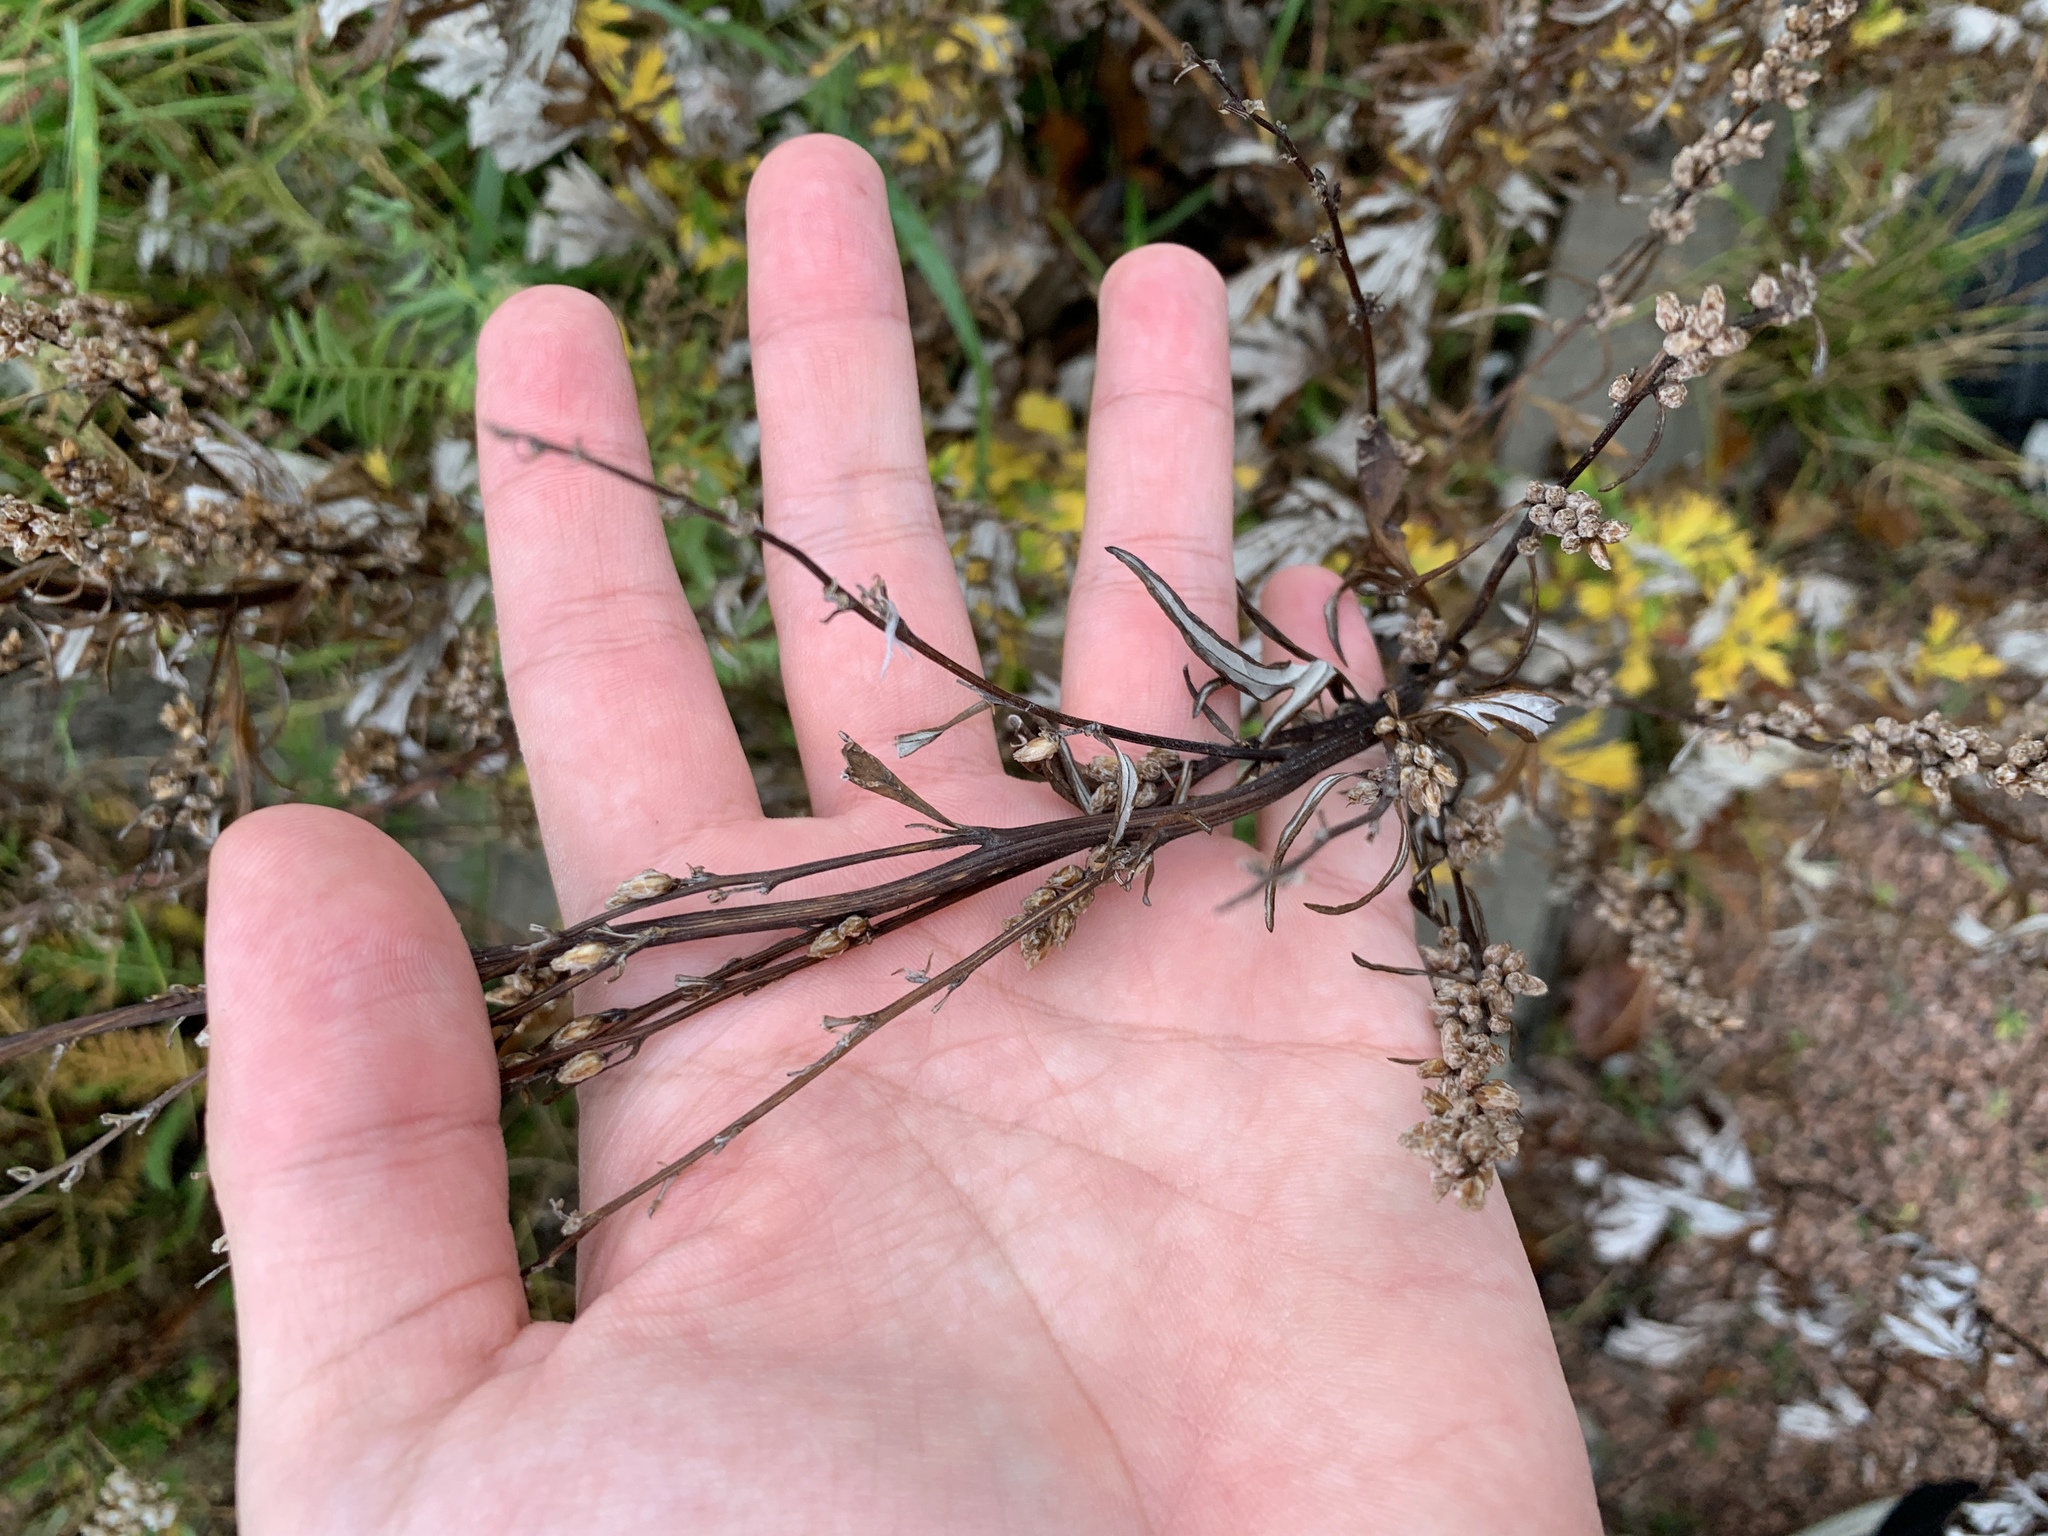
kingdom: Plantae
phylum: Tracheophyta
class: Magnoliopsida
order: Asterales
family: Asteraceae
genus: Artemisia
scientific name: Artemisia vulgaris
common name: Mugwort
